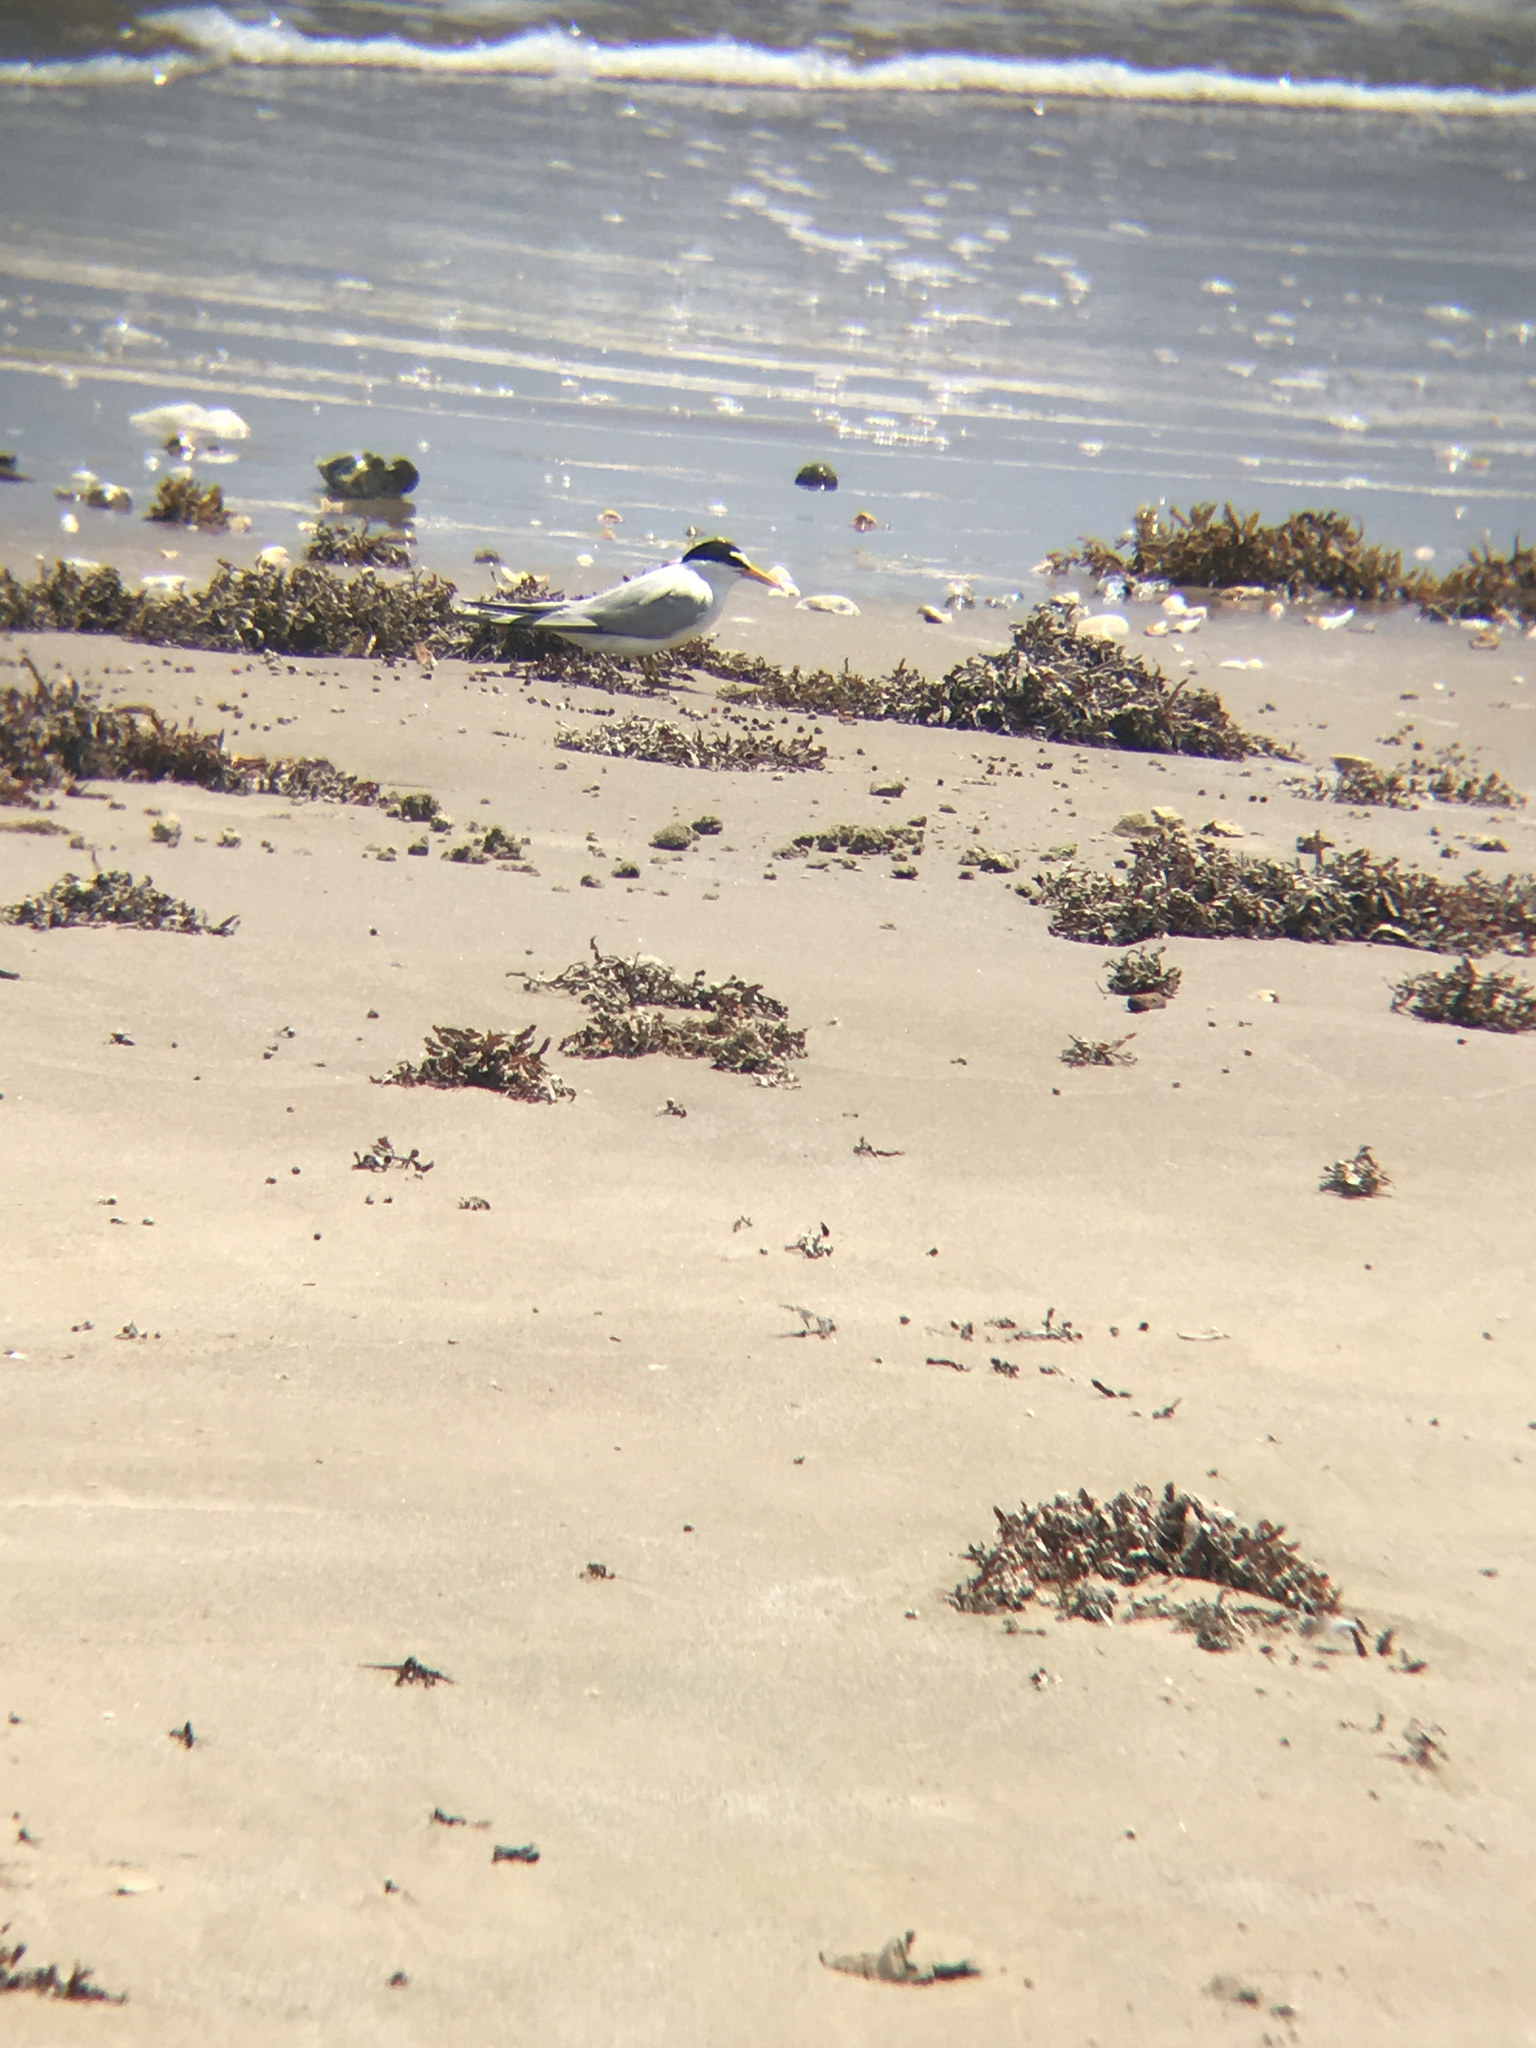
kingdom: Animalia
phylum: Chordata
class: Aves
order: Charadriiformes
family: Laridae
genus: Sternula
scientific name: Sternula antillarum
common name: Least tern
